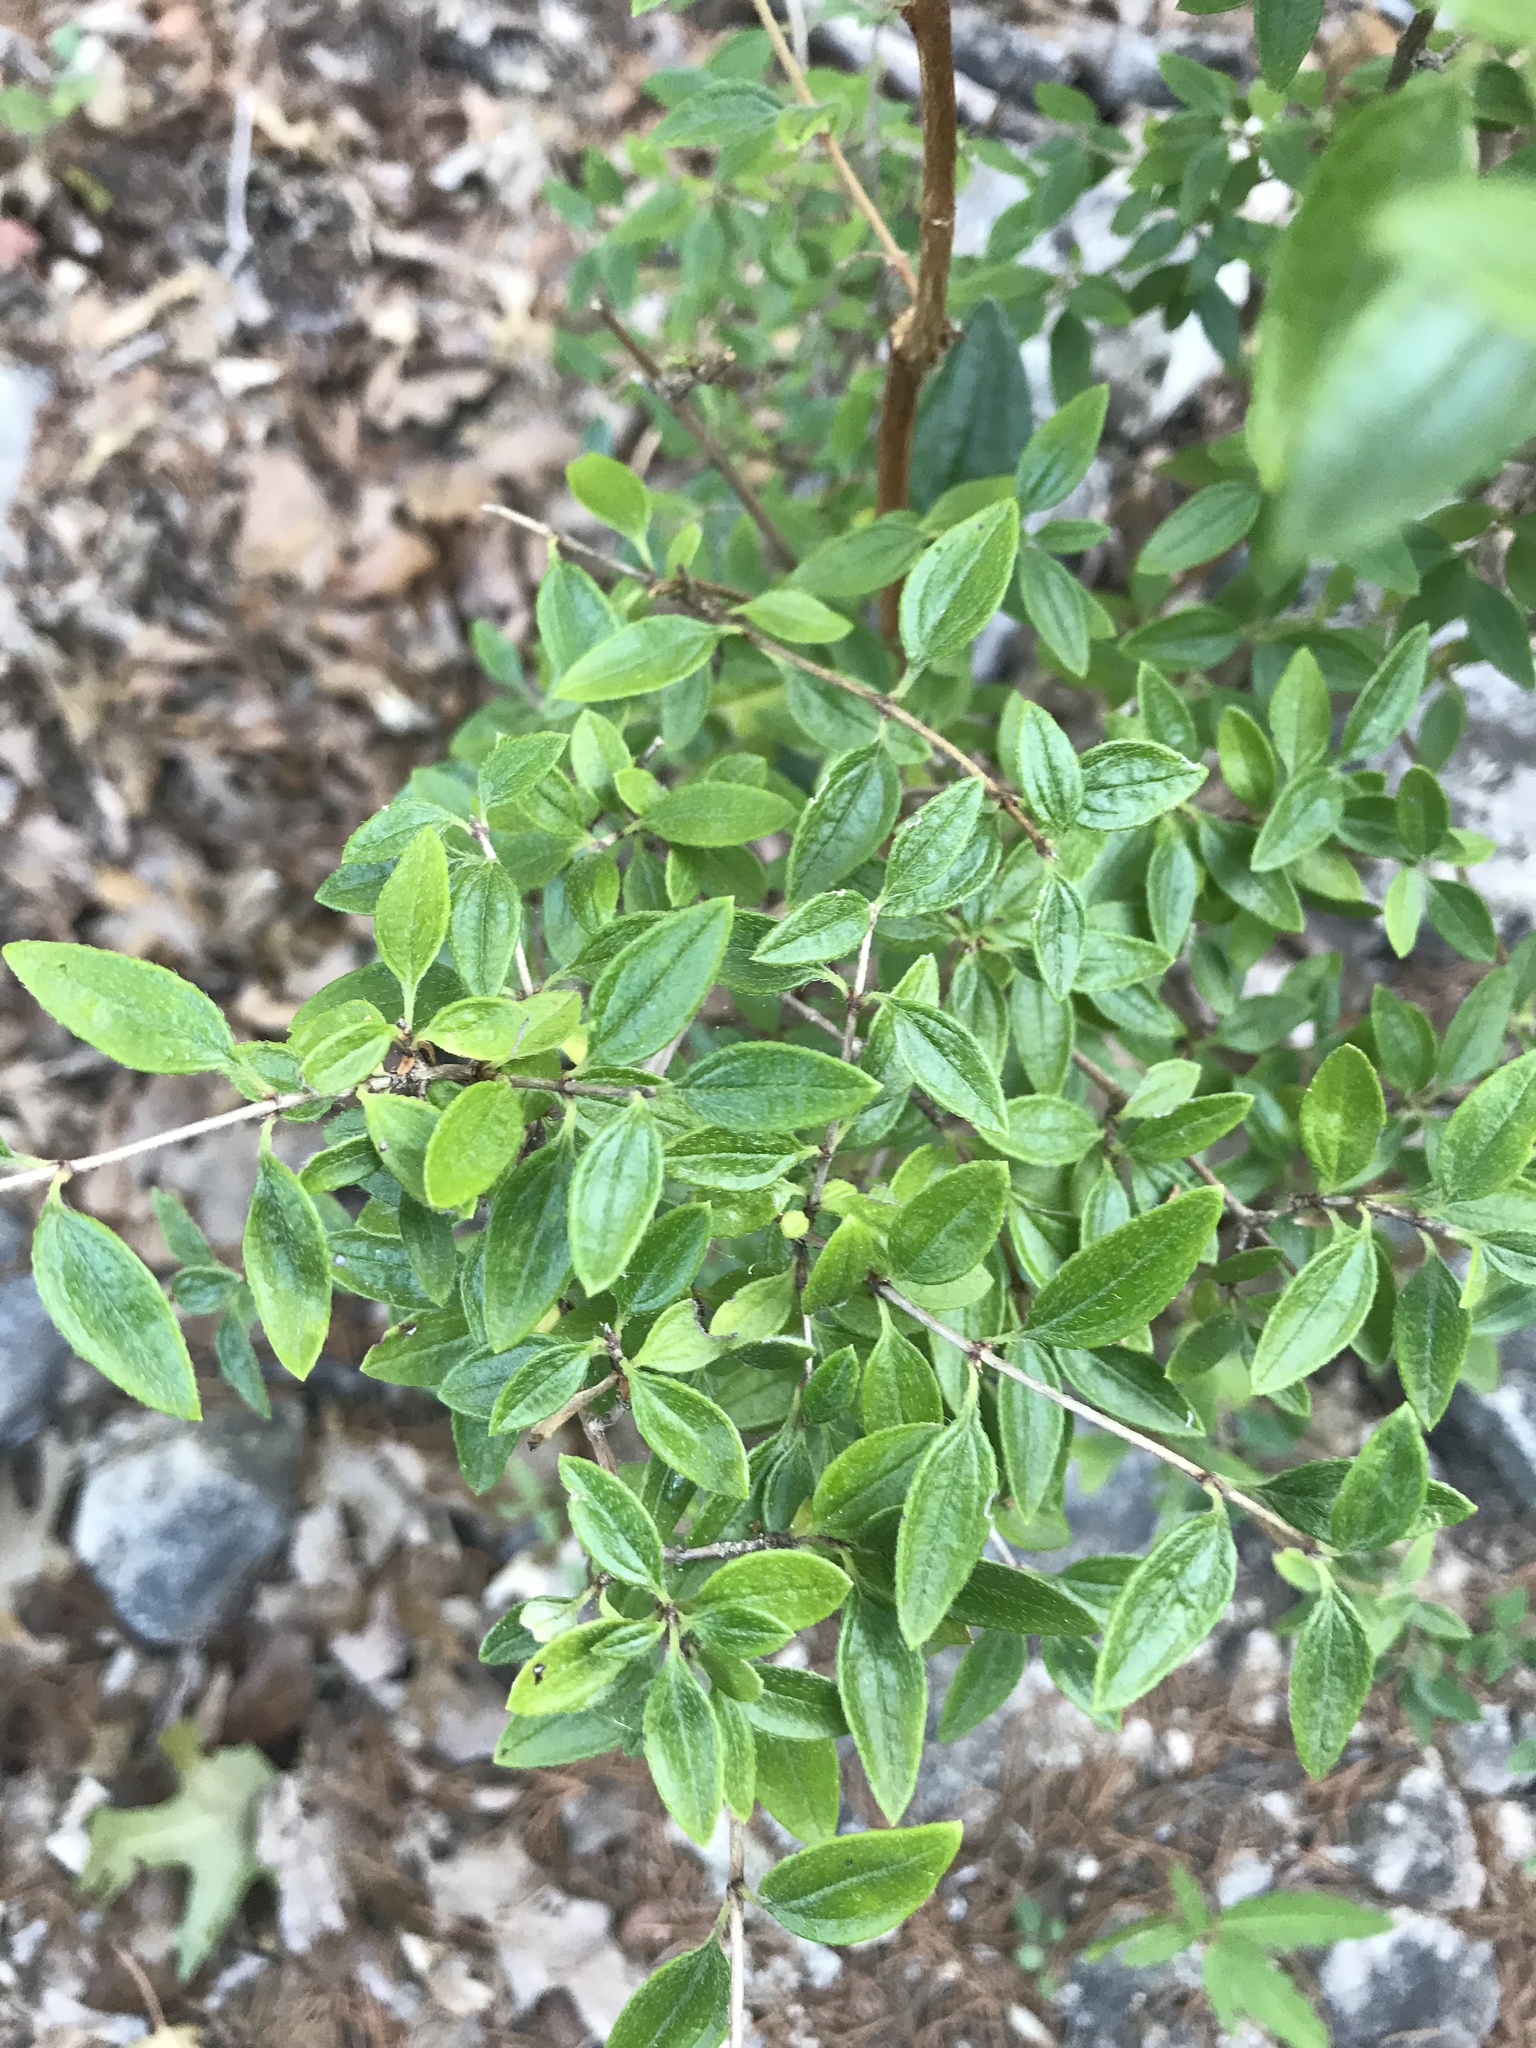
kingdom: Plantae
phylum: Tracheophyta
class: Magnoliopsida
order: Cornales
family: Hydrangeaceae
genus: Philadelphus
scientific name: Philadelphus texensis
